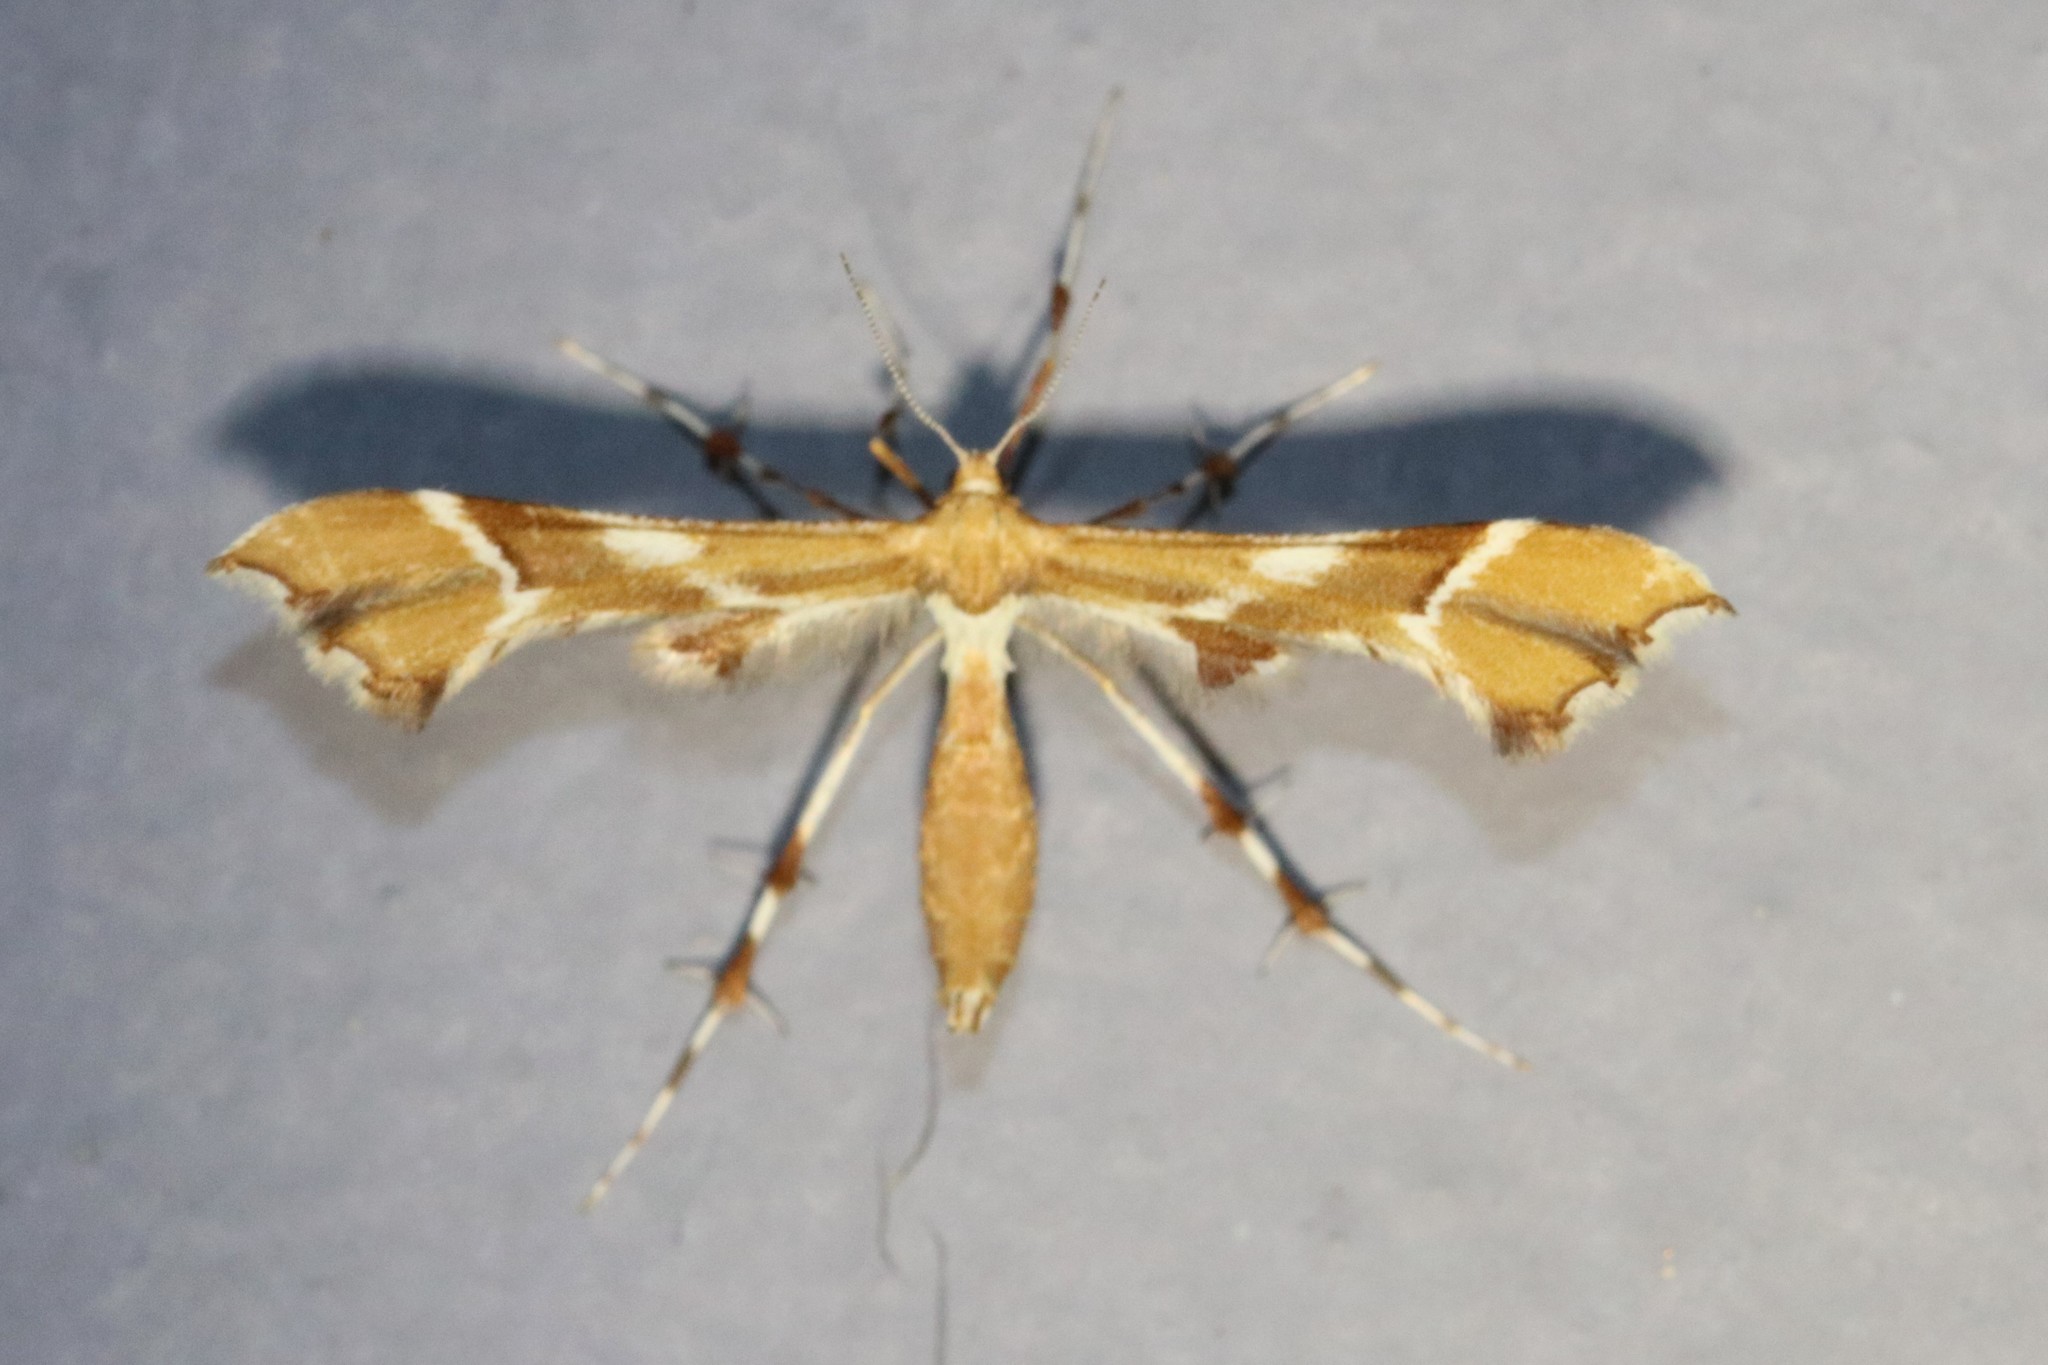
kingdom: Animalia
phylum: Arthropoda
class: Insecta
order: Lepidoptera
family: Pterophoridae
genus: Cnaemidophorus
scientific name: Cnaemidophorus rhododactyla
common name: Rose plume
